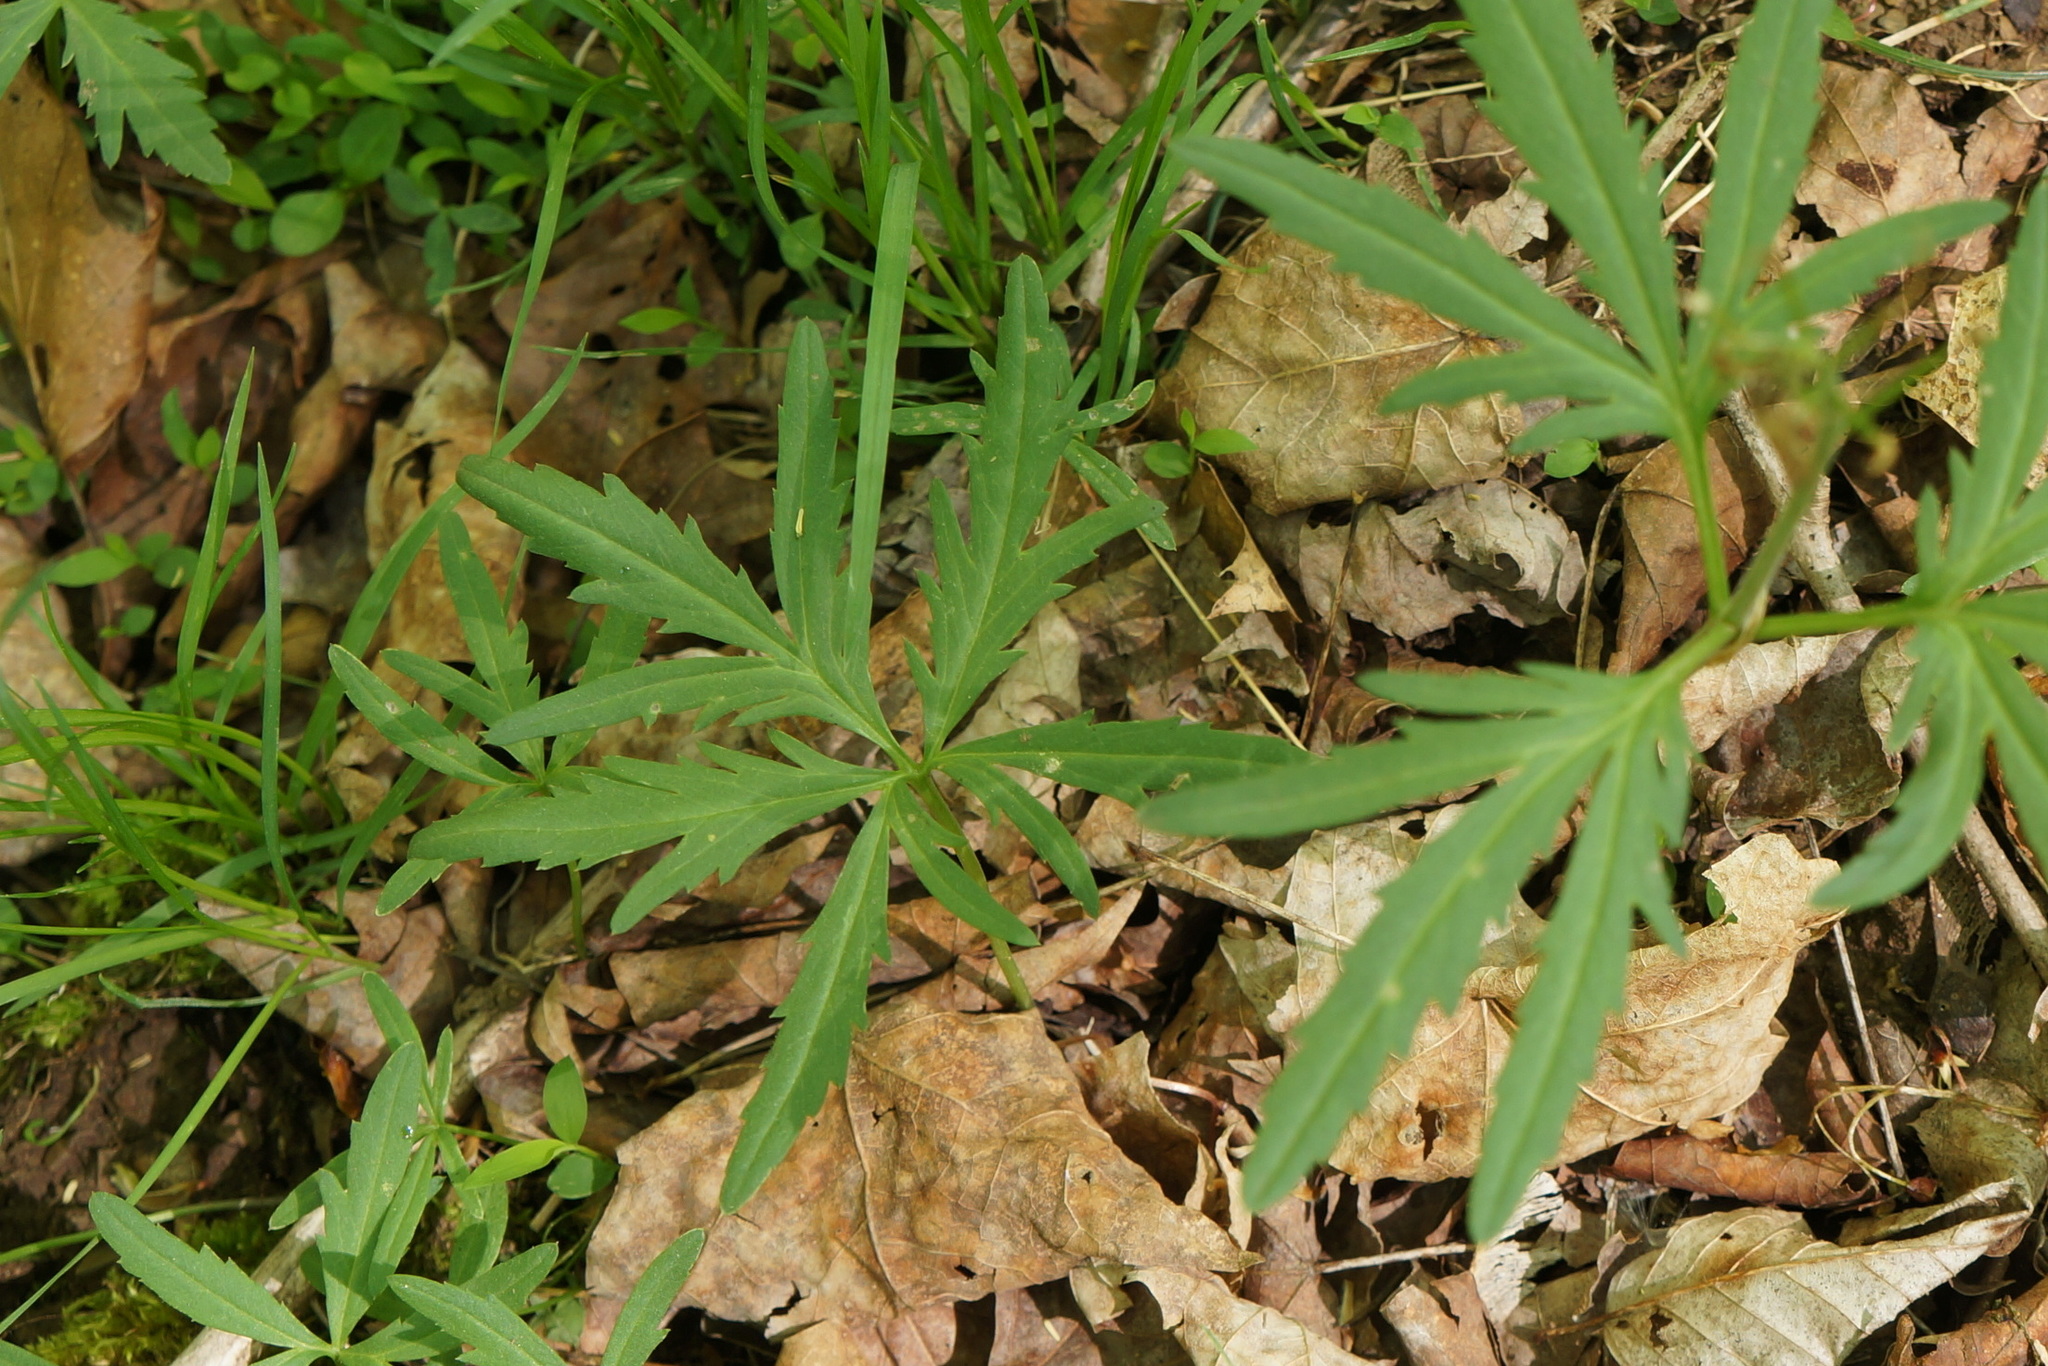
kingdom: Plantae
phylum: Tracheophyta
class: Magnoliopsida
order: Brassicales
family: Brassicaceae
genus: Cardamine
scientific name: Cardamine concatenata
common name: Cut-leaf toothcup
